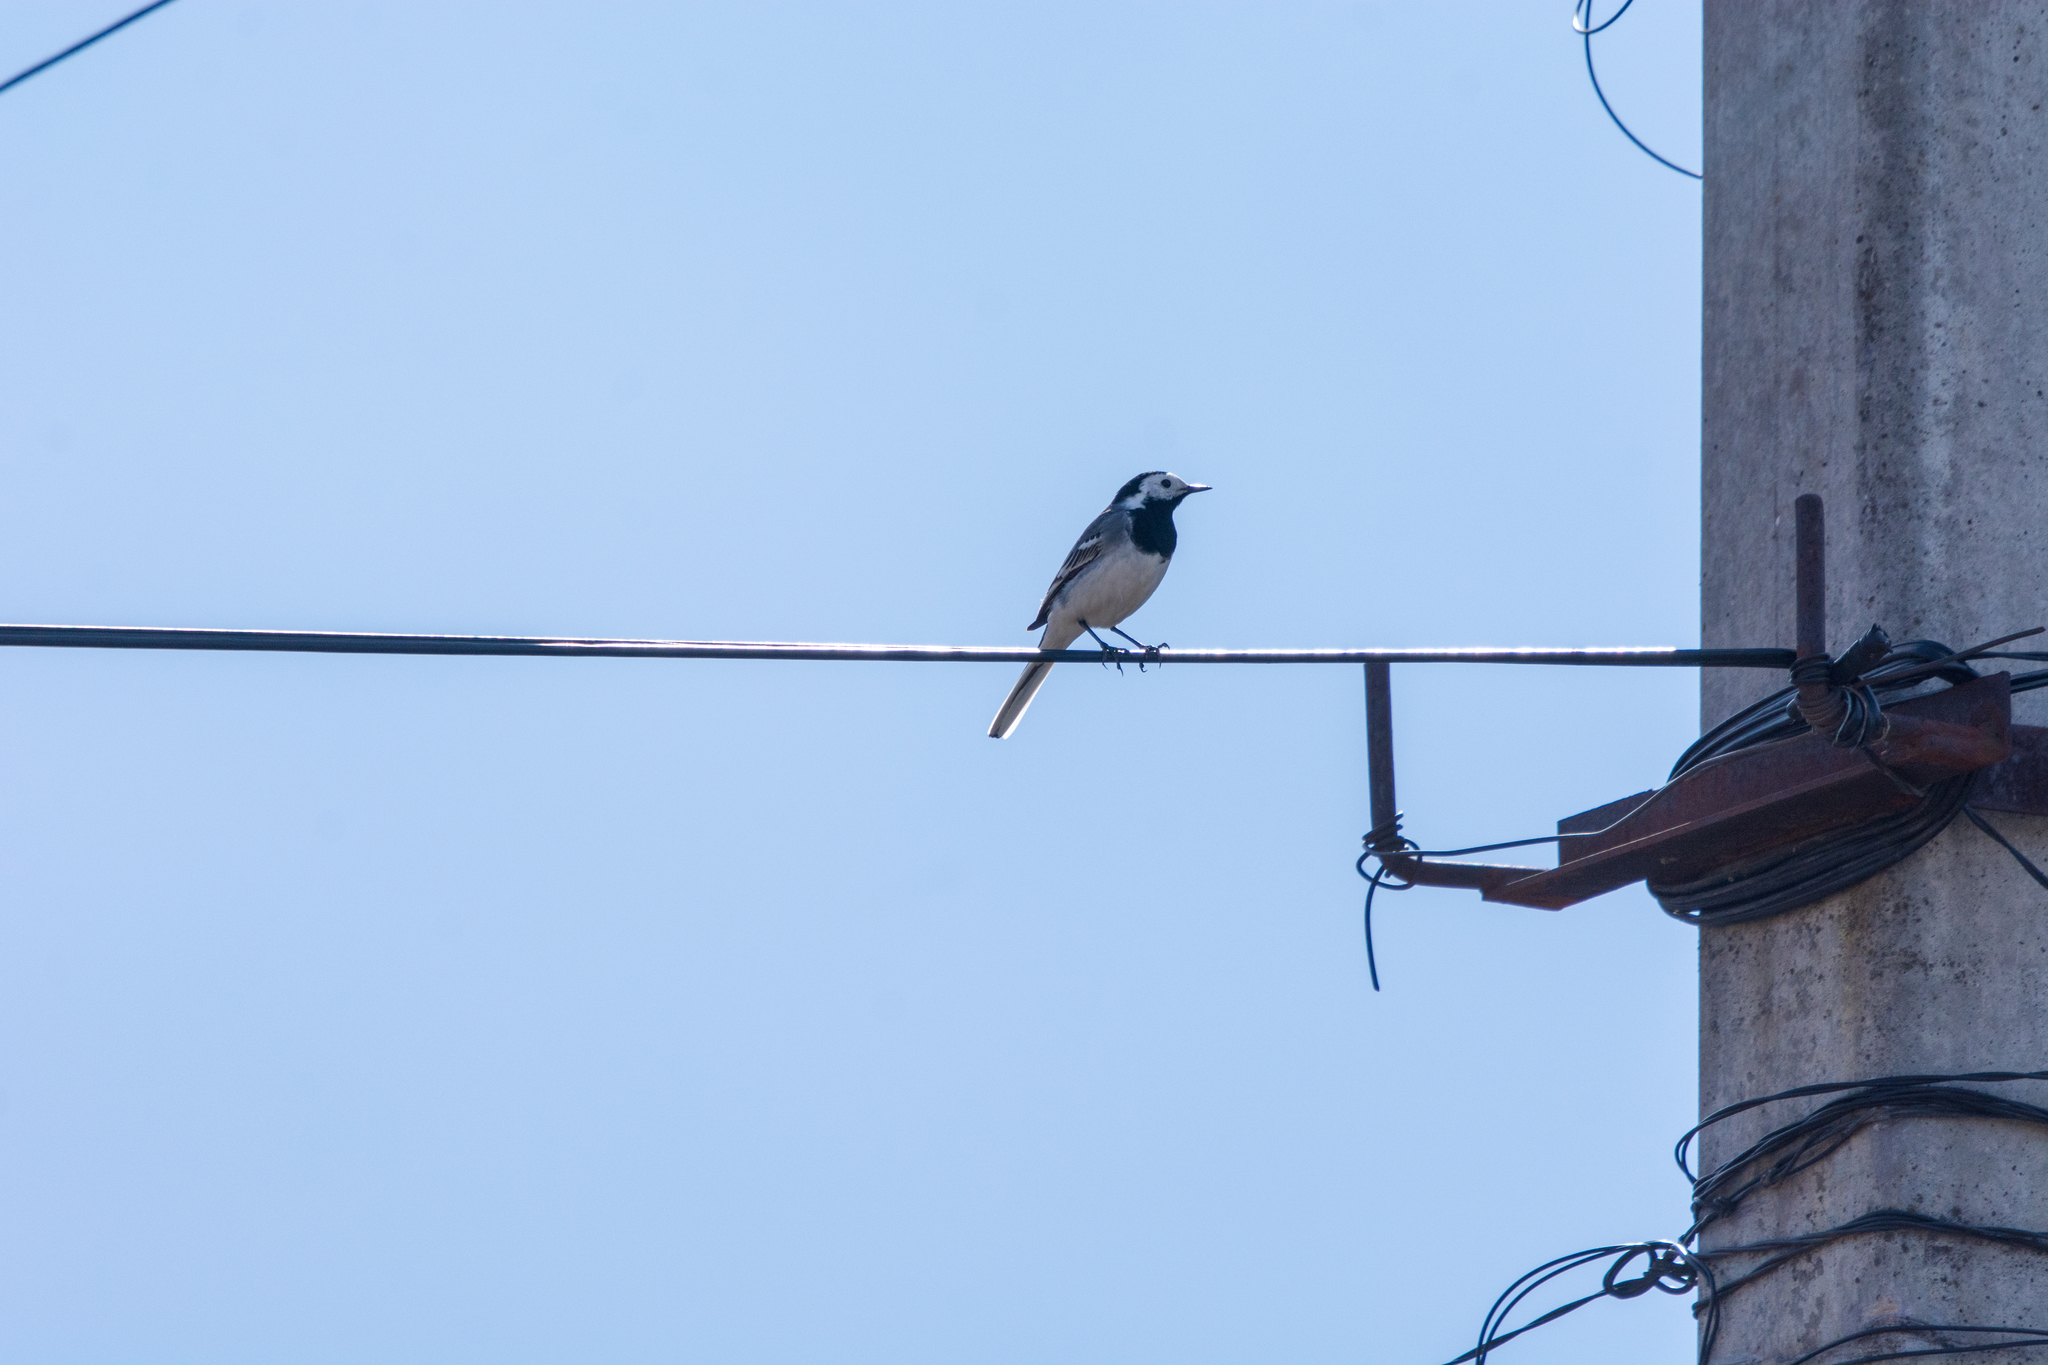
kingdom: Animalia
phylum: Chordata
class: Aves
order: Passeriformes
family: Motacillidae
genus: Motacilla
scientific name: Motacilla alba
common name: White wagtail
